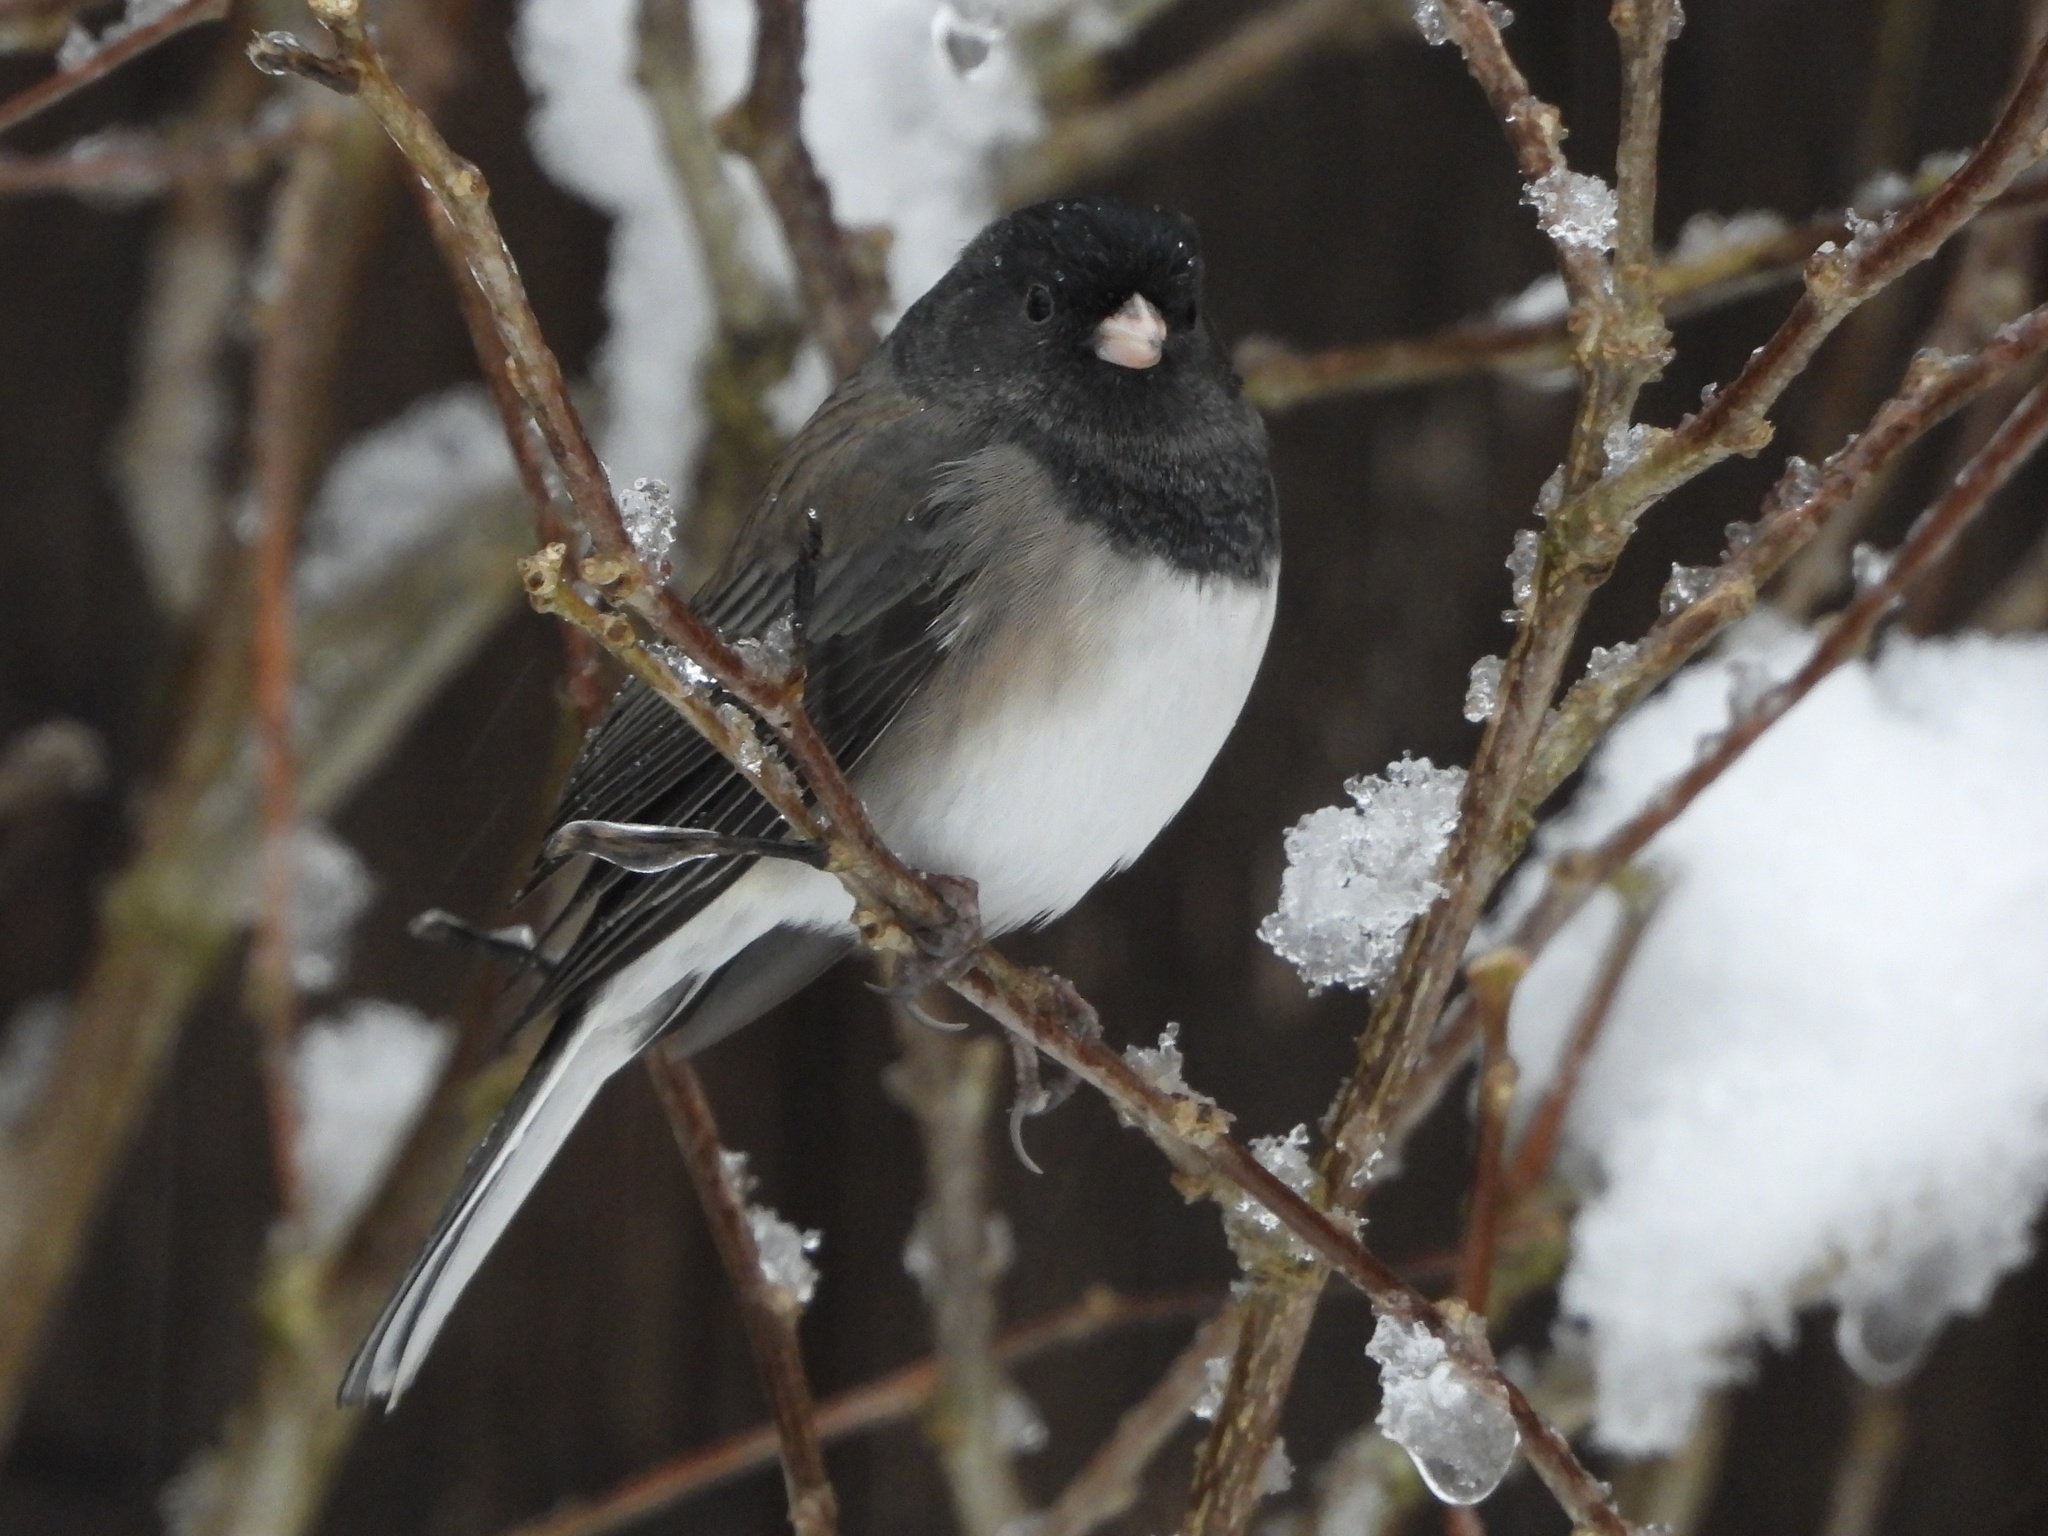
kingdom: Animalia
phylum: Chordata
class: Aves
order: Passeriformes
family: Passerellidae
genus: Junco
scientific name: Junco hyemalis
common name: Dark-eyed junco
